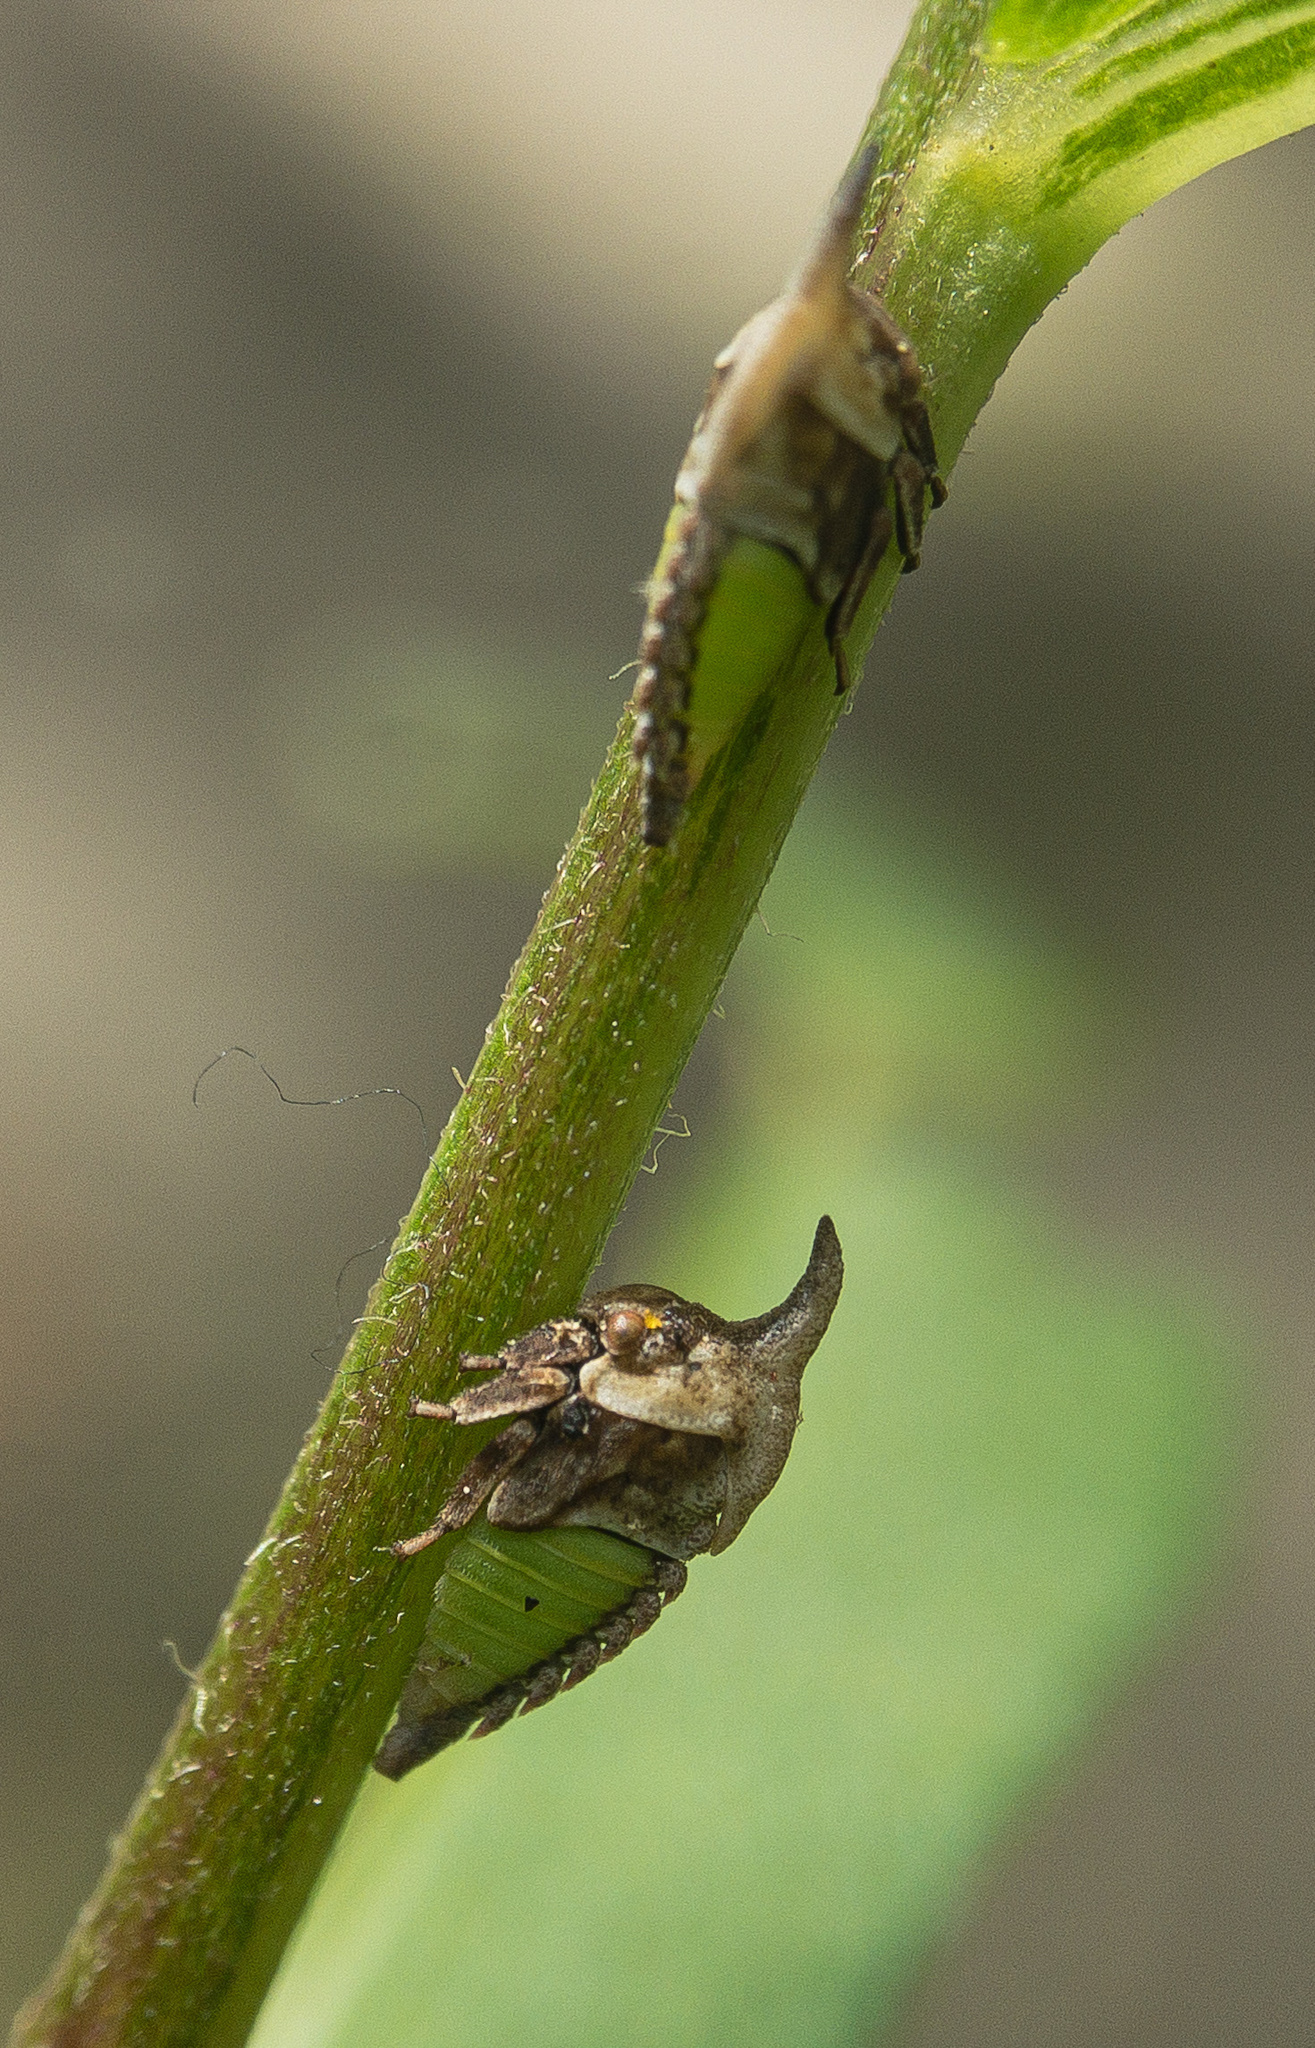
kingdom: Animalia
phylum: Arthropoda
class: Insecta
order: Hemiptera
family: Membracidae
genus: Enchenopa
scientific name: Enchenopa latipes
